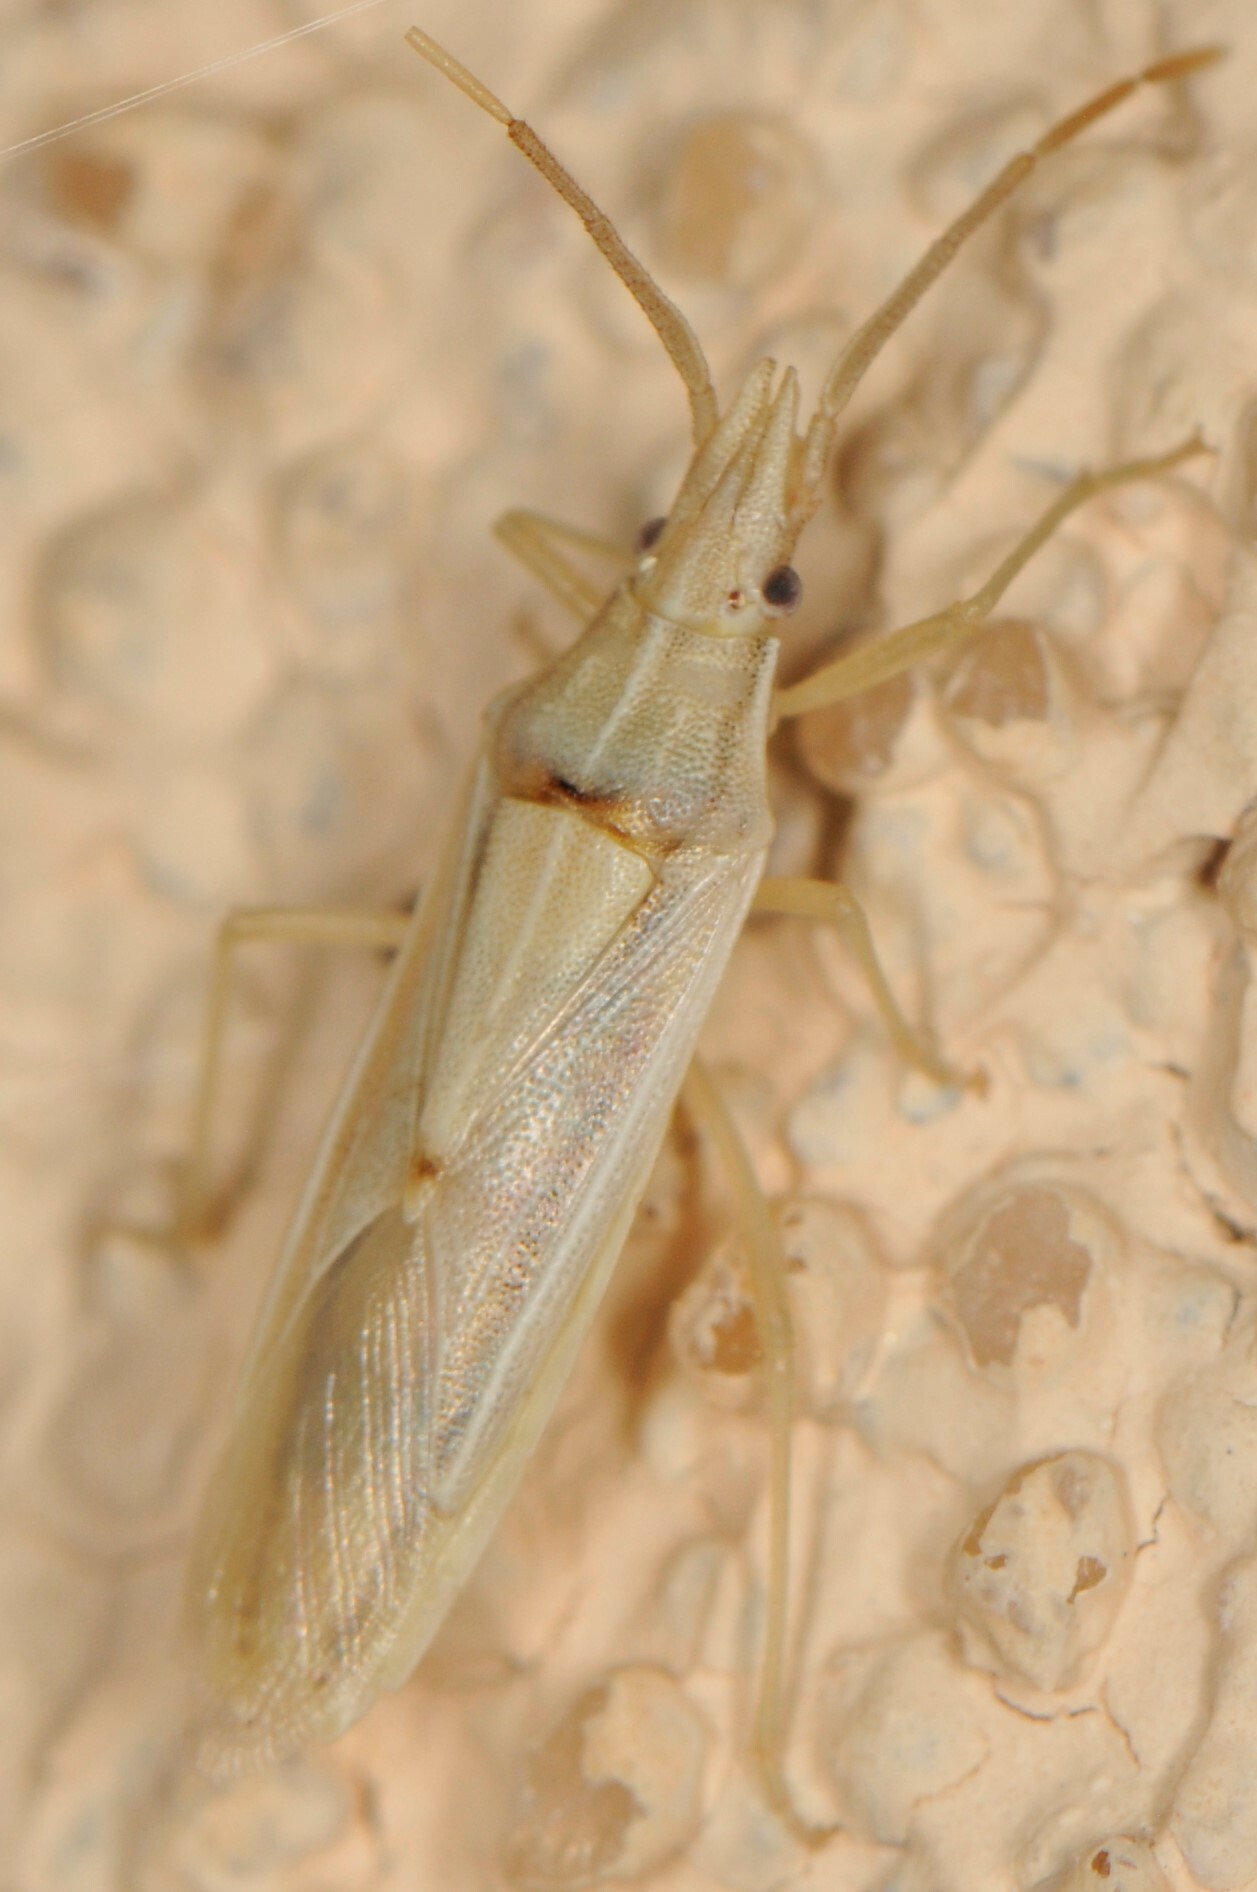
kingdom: Animalia
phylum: Arthropoda
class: Insecta
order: Hemiptera
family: Pentatomidae
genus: Mecidea
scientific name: Mecidea
